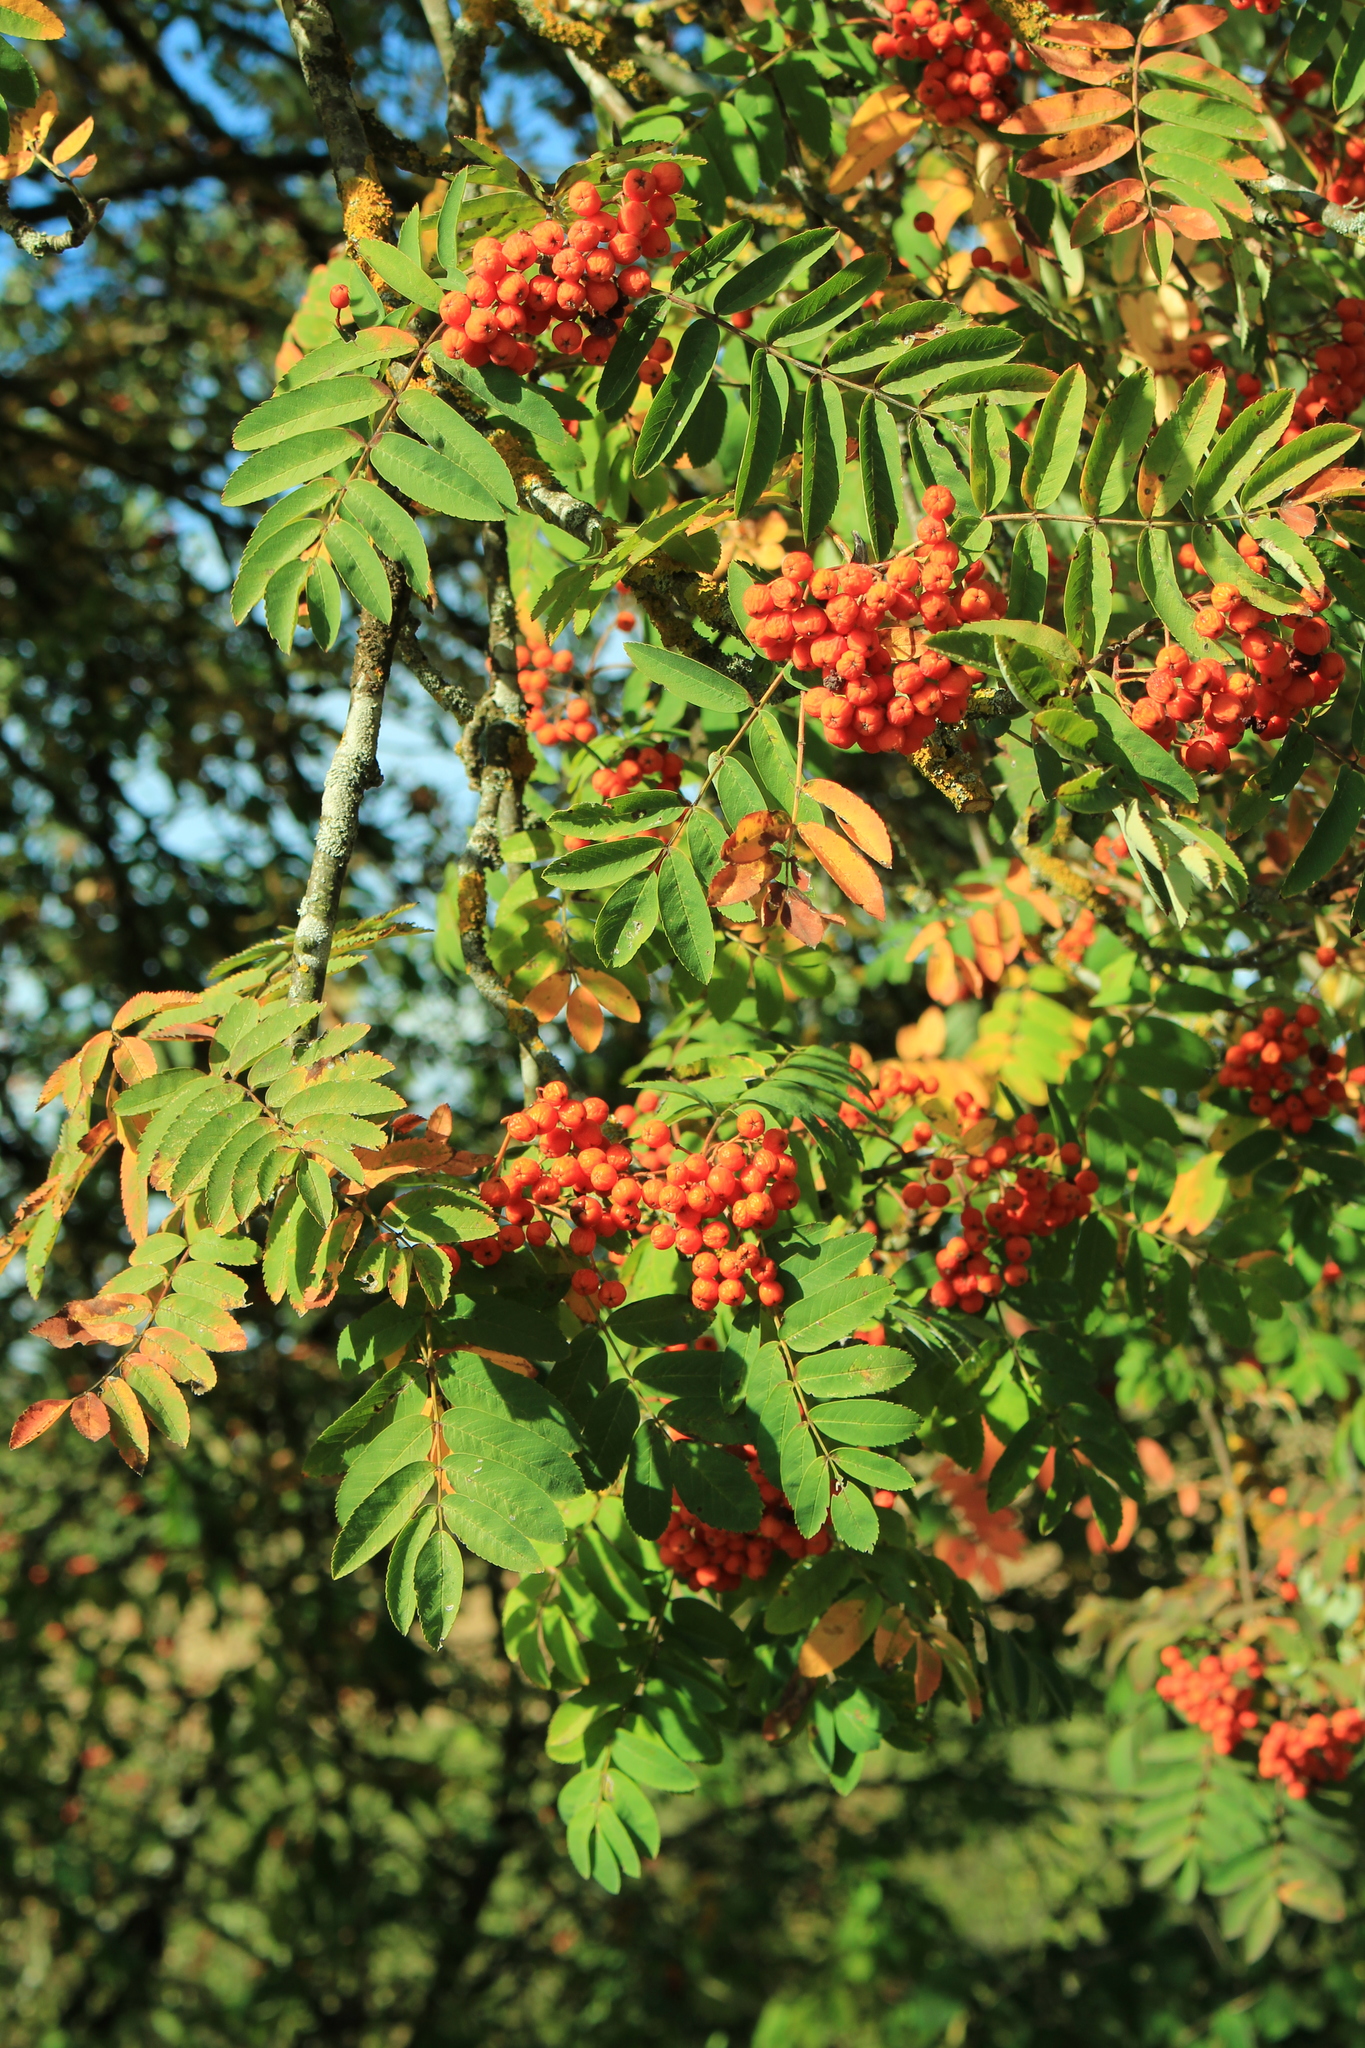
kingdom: Plantae
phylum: Tracheophyta
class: Magnoliopsida
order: Rosales
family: Rosaceae
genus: Sorbus
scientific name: Sorbus aucuparia
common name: Rowan
